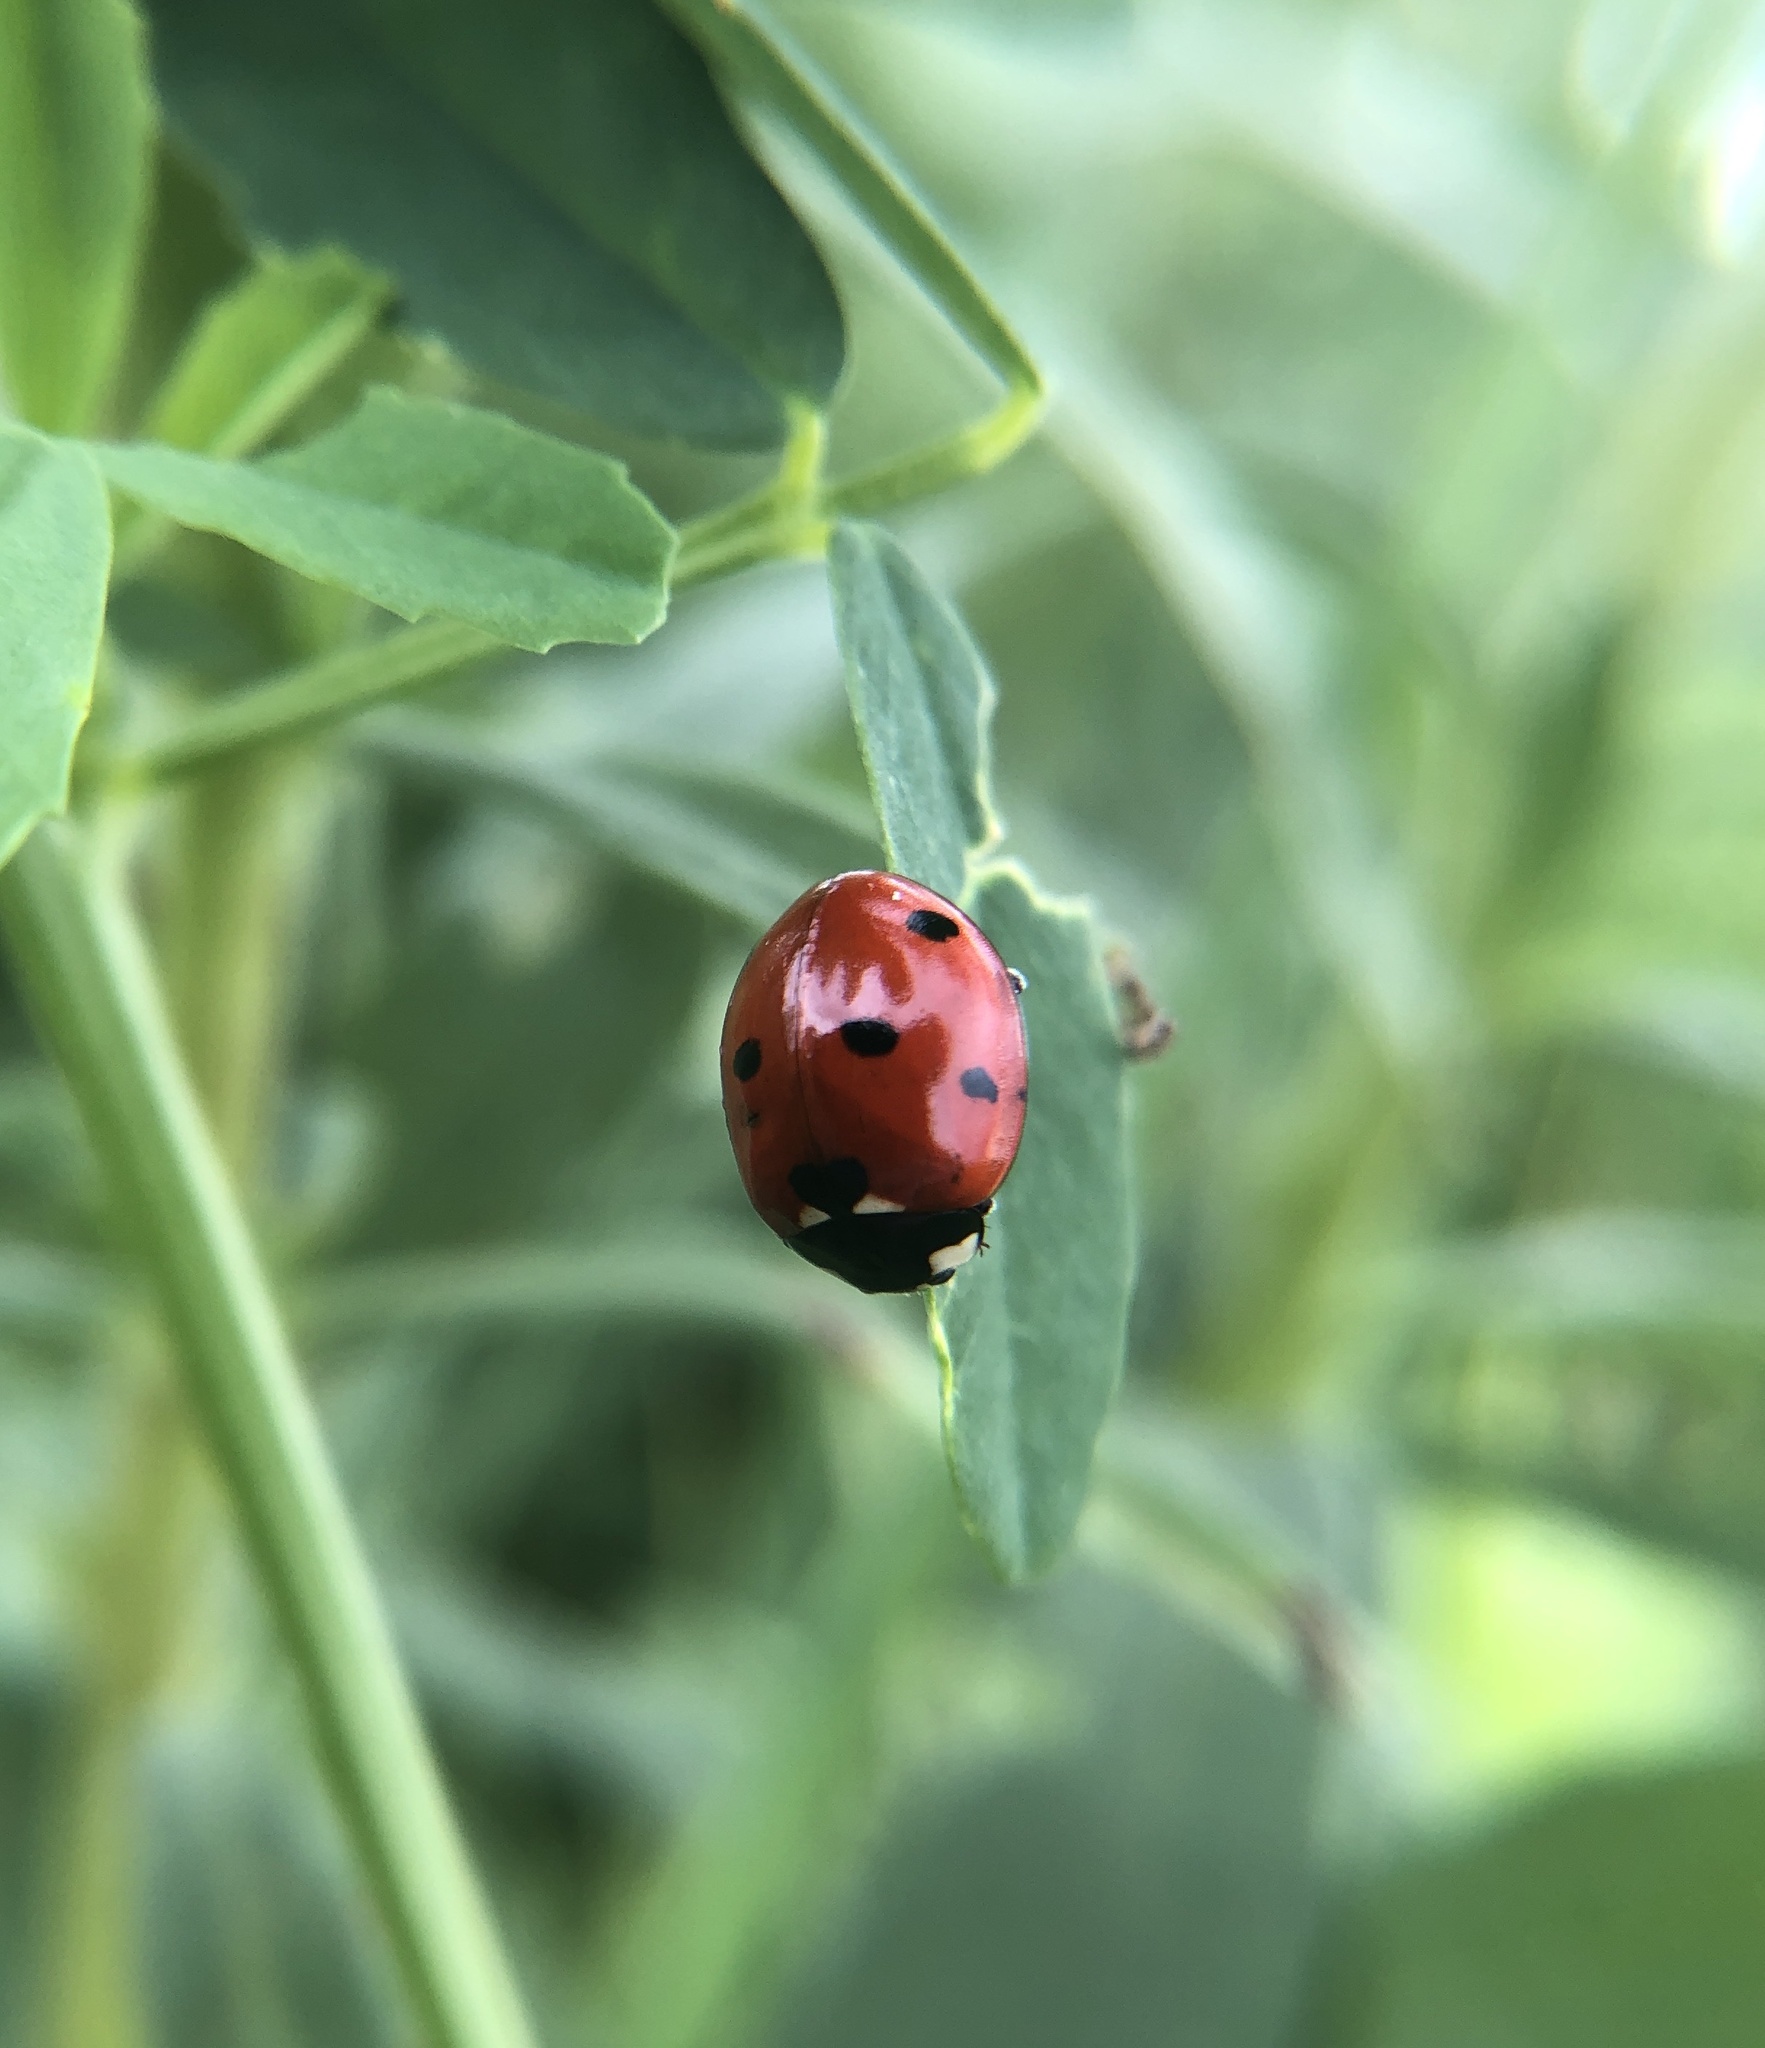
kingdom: Animalia
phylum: Arthropoda
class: Insecta
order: Coleoptera
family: Coccinellidae
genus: Coccinella
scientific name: Coccinella septempunctata
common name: Sevenspotted lady beetle
